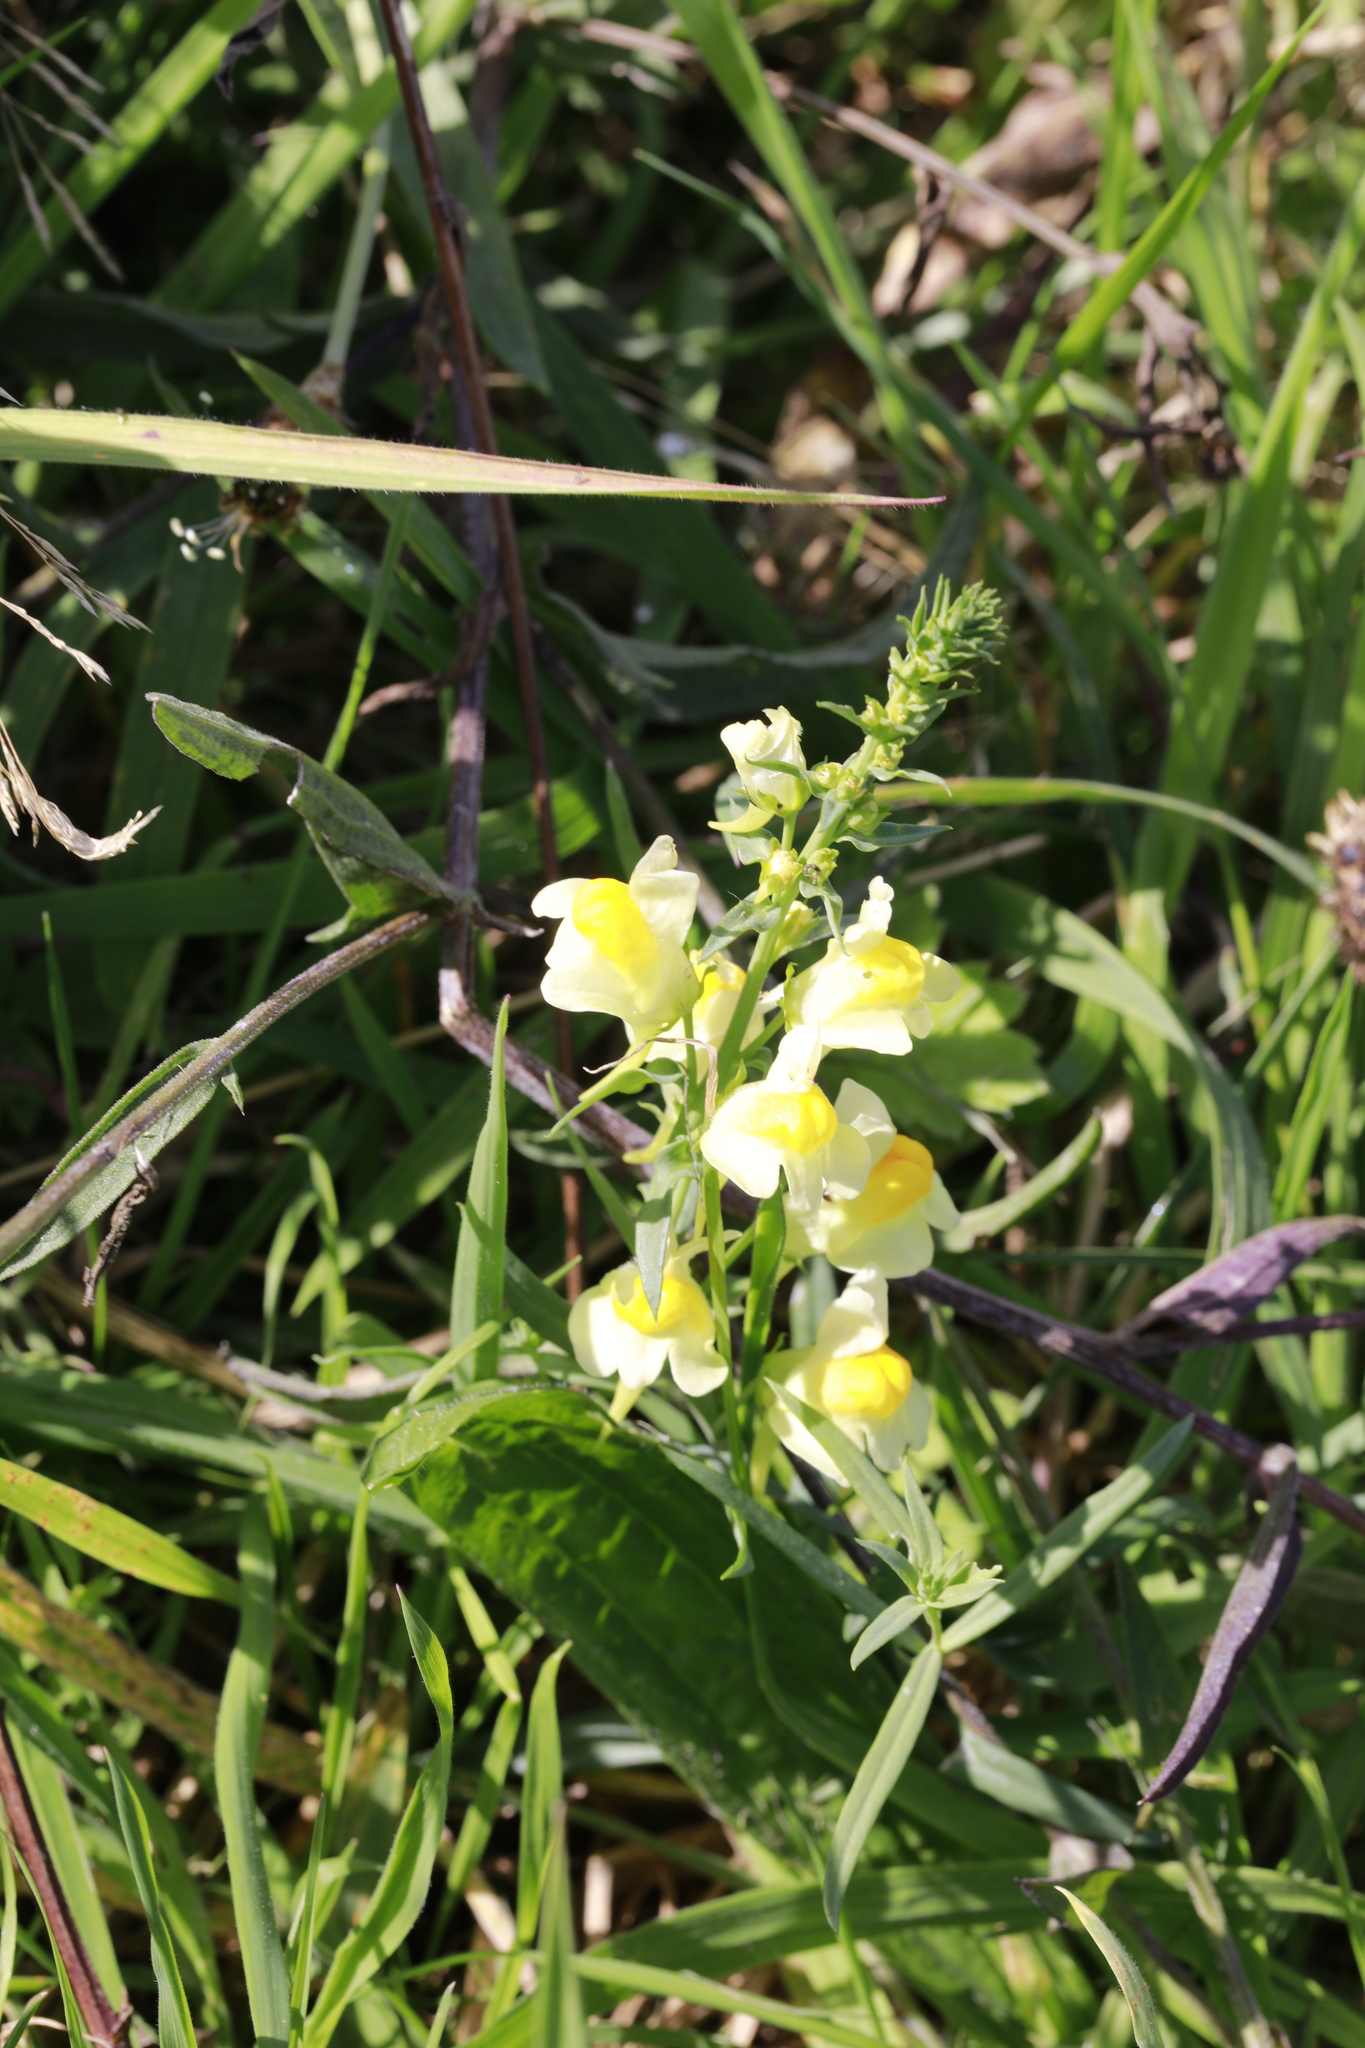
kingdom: Plantae
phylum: Tracheophyta
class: Magnoliopsida
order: Lamiales
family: Plantaginaceae
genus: Linaria
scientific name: Linaria vulgaris
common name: Butter and eggs
